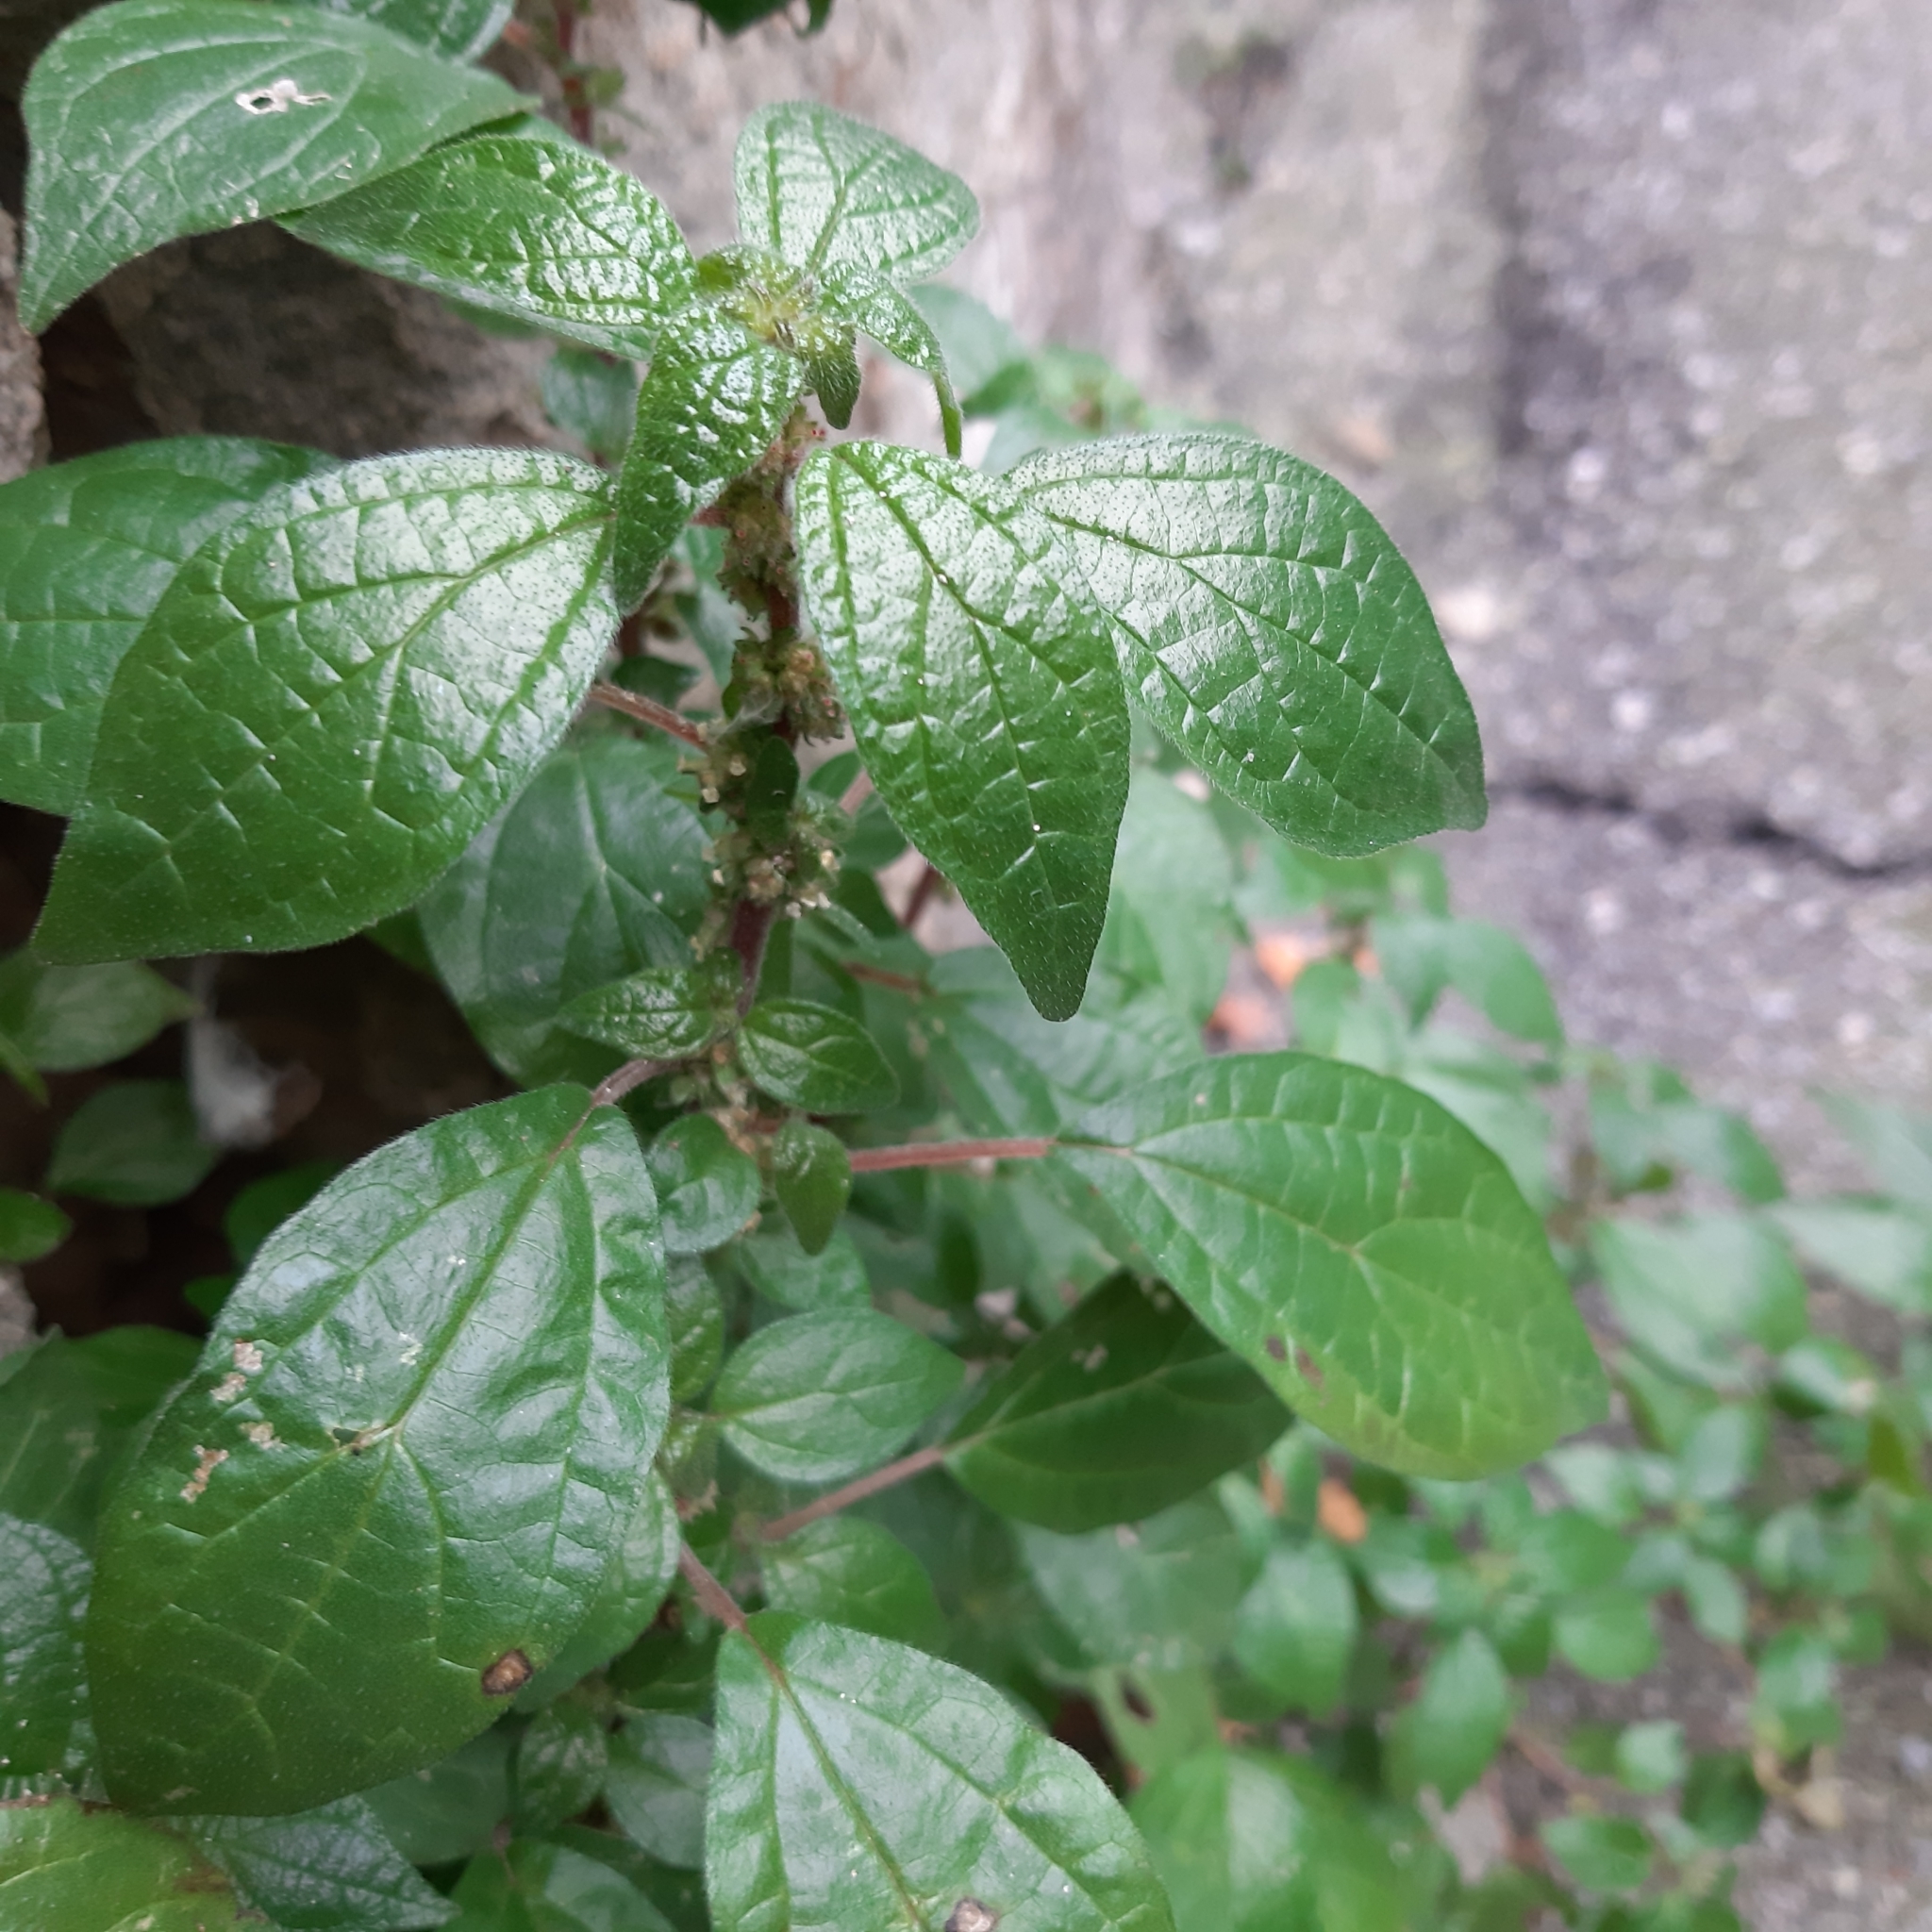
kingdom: Plantae
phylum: Tracheophyta
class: Magnoliopsida
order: Rosales
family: Urticaceae
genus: Parietaria
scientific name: Parietaria judaica
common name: Pellitory-of-the-wall
